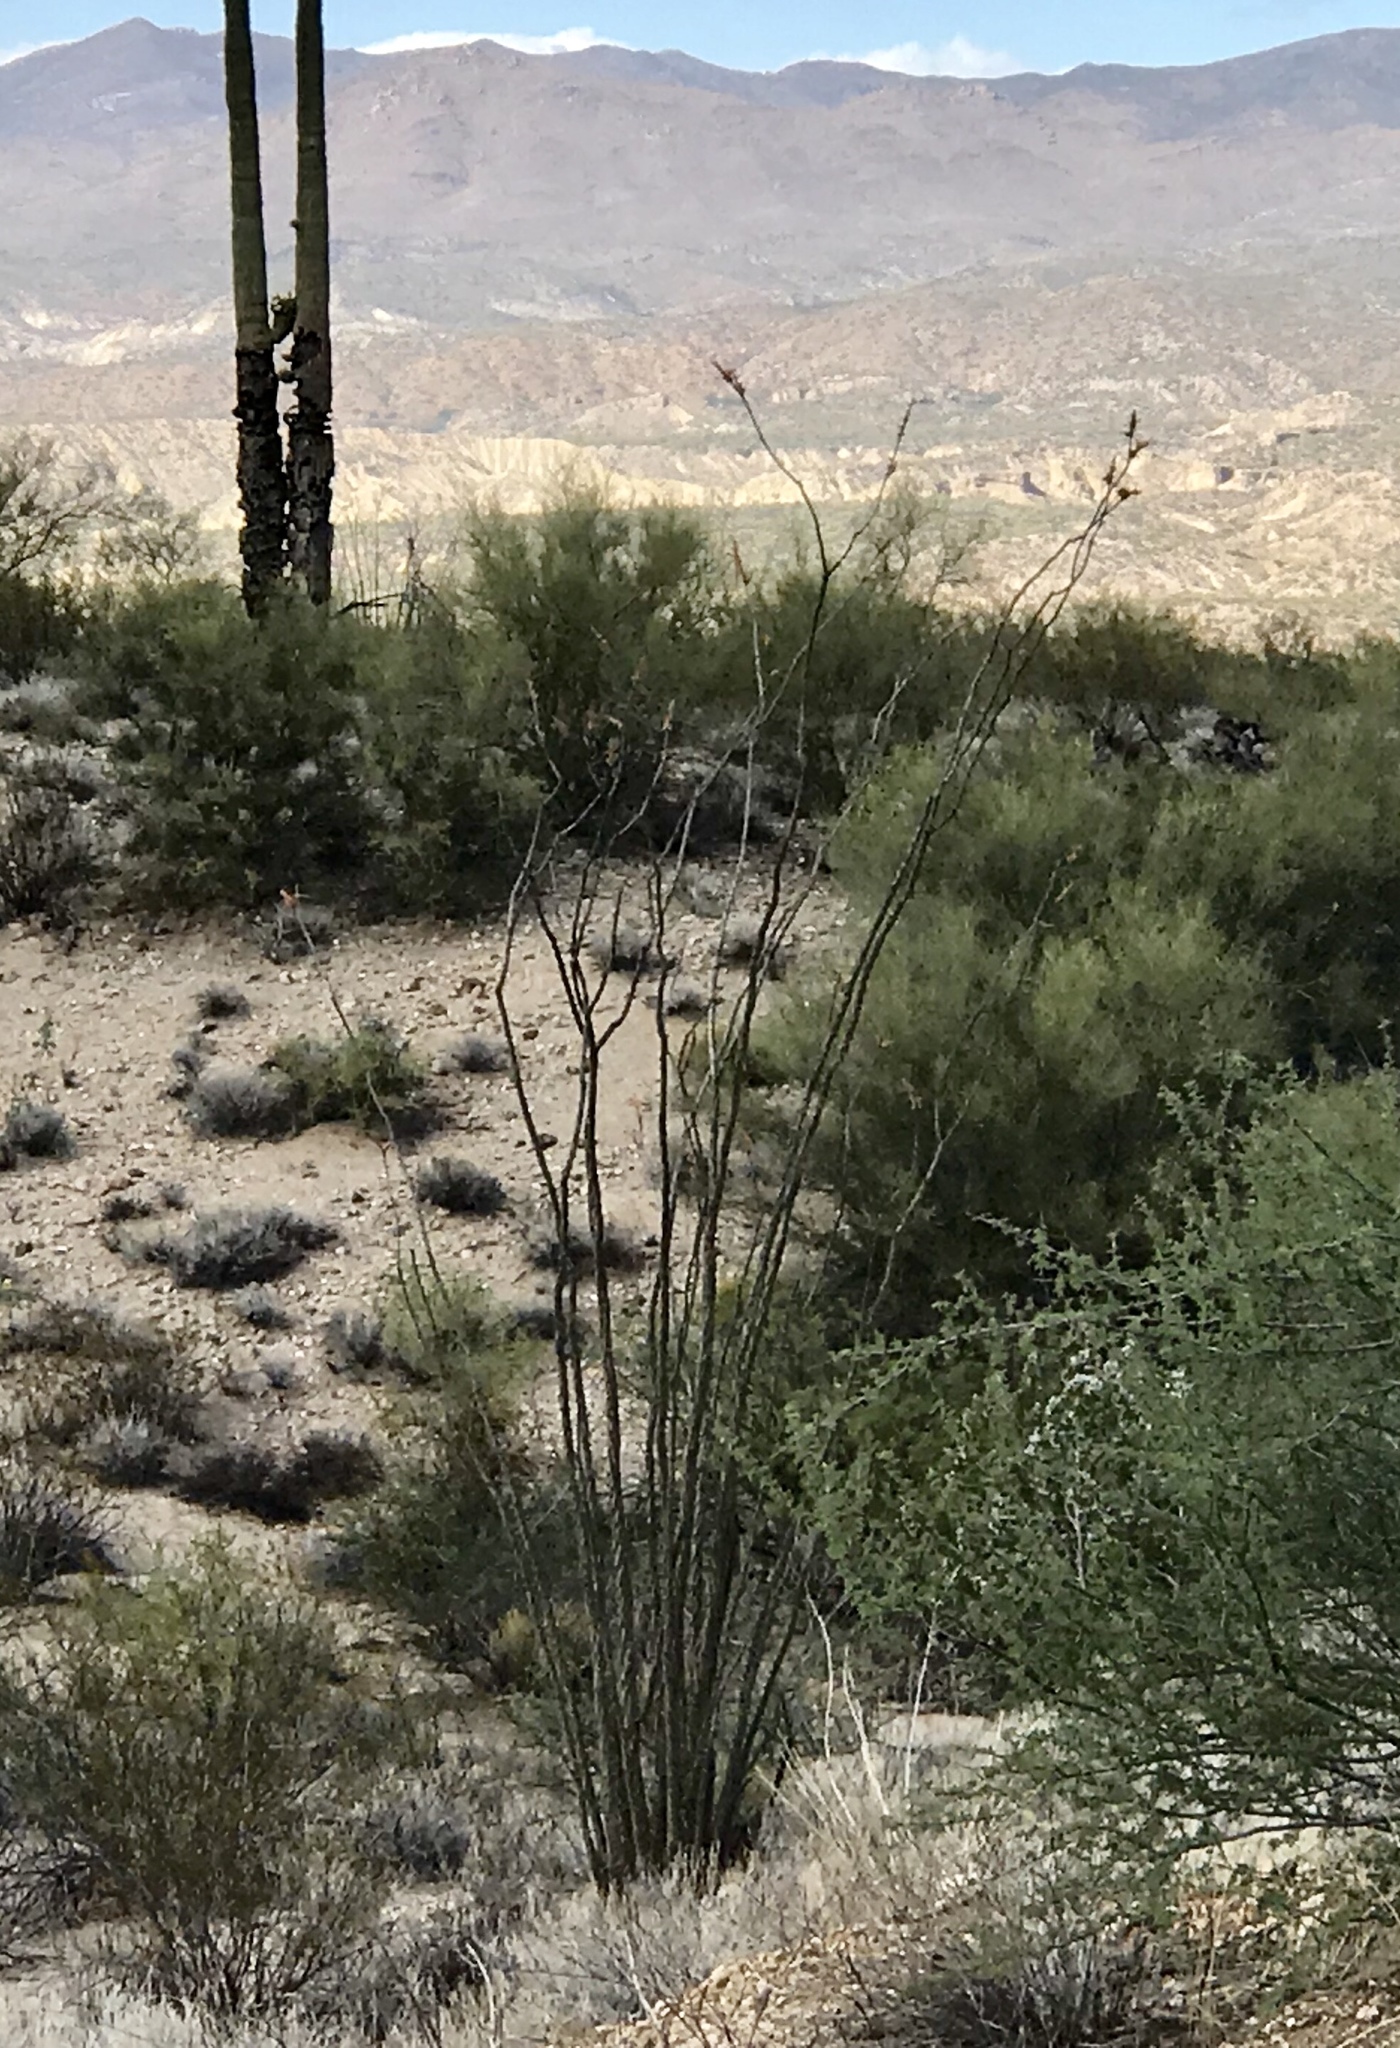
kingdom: Plantae
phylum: Tracheophyta
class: Magnoliopsida
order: Ericales
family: Fouquieriaceae
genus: Fouquieria
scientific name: Fouquieria splendens
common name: Vine-cactus
